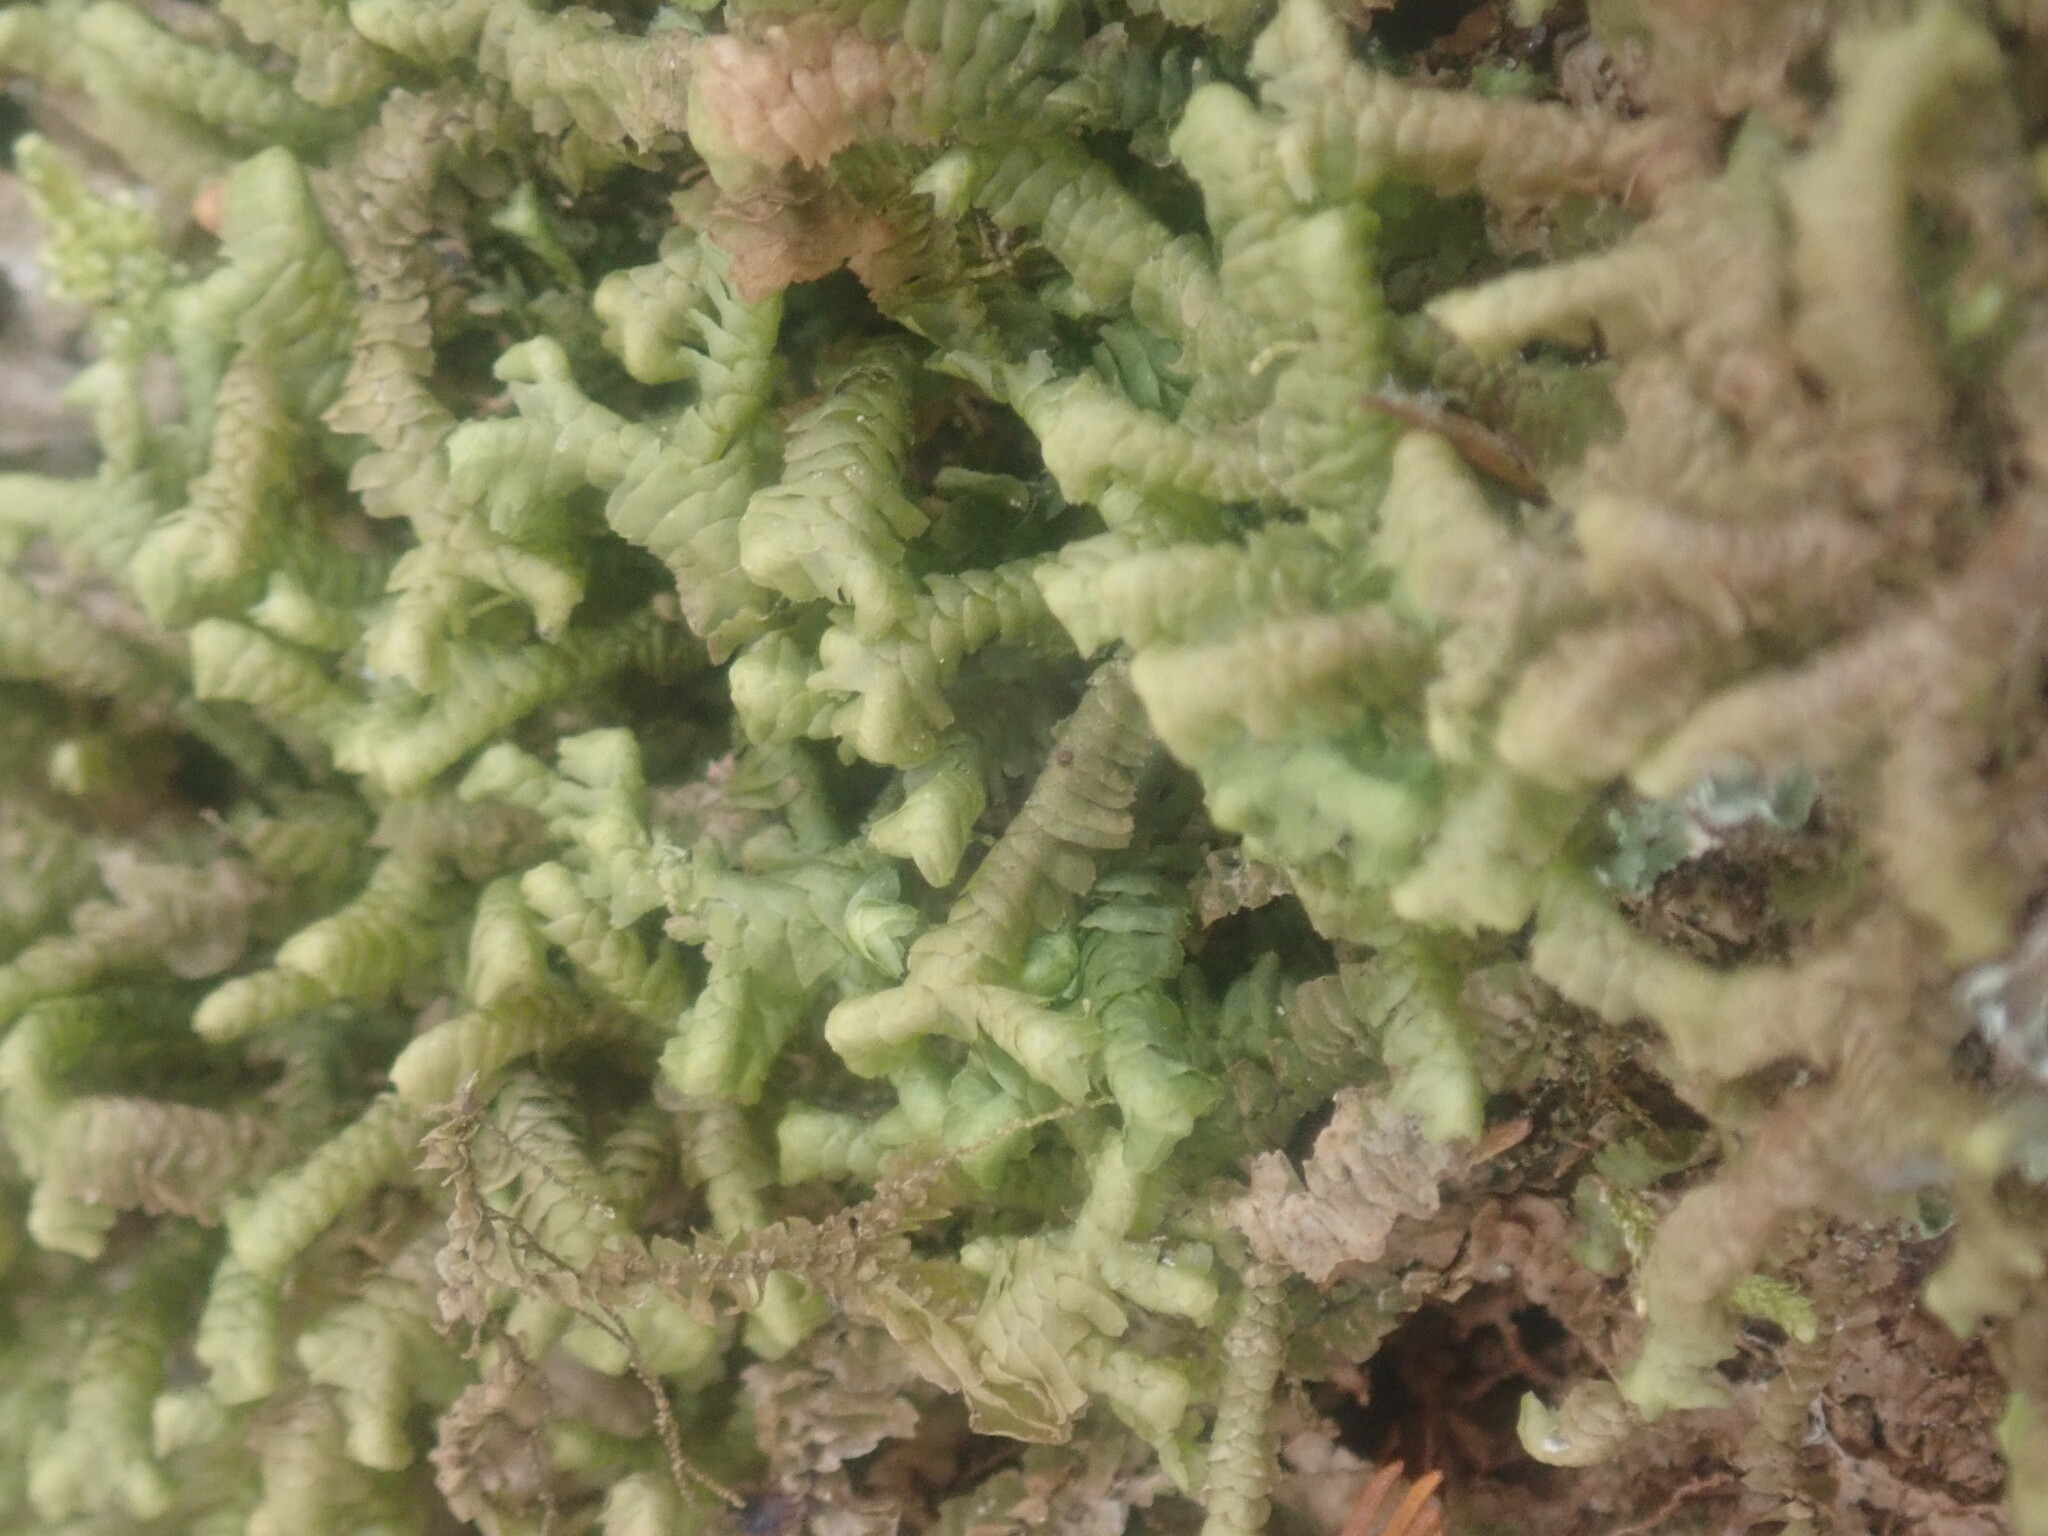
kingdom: Plantae
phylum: Marchantiophyta
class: Jungermanniopsida
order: Jungermanniales
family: Lepidoziaceae
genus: Bazzania
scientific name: Bazzania trilobata
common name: Three-lobed whipwort
